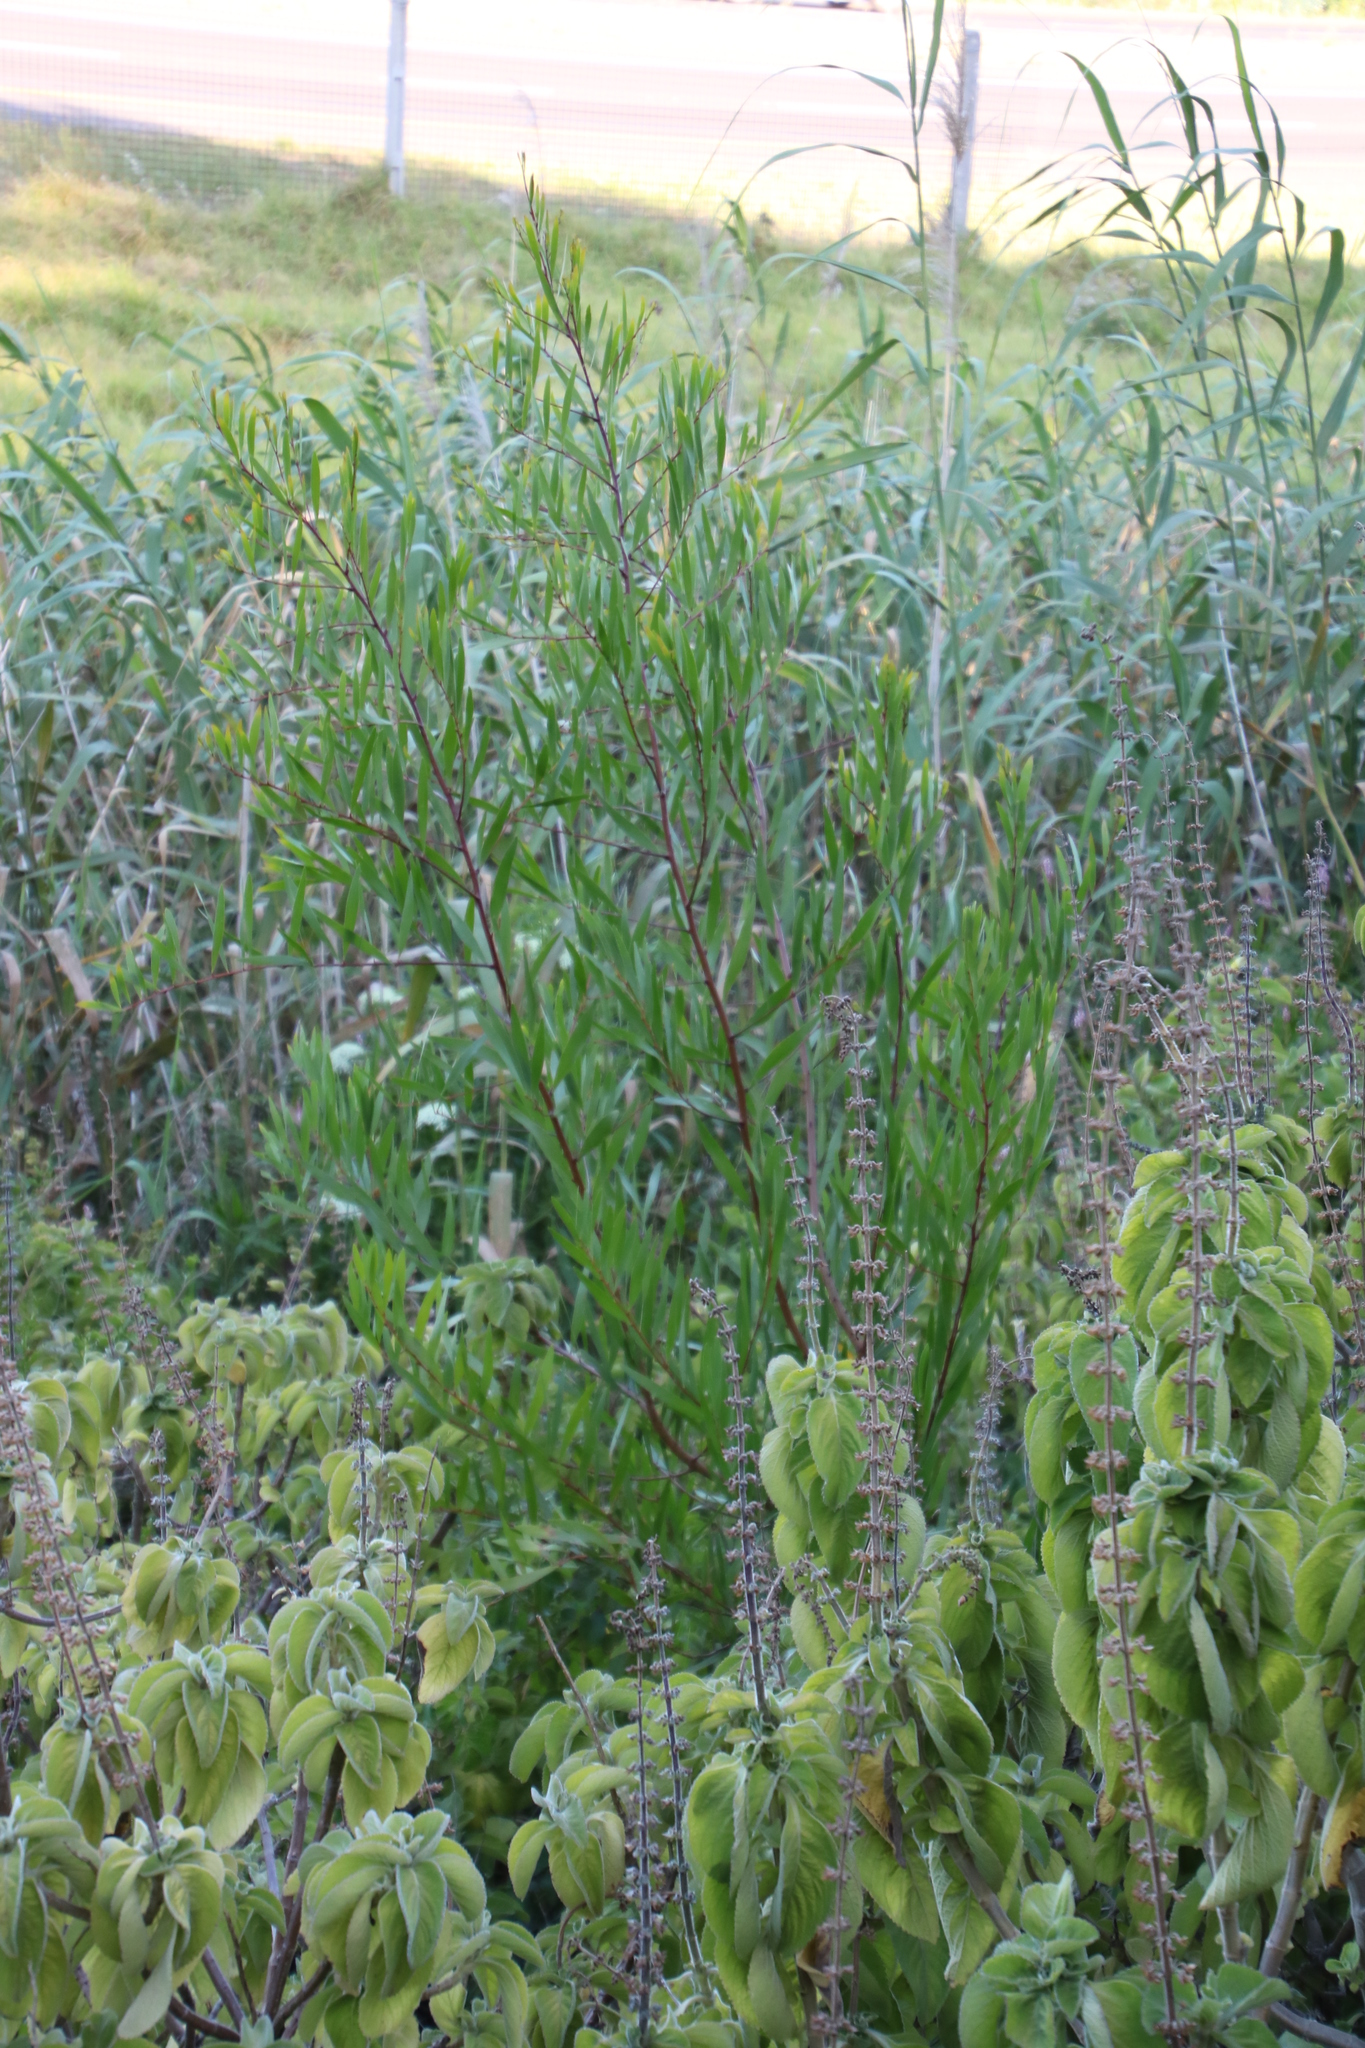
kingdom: Plantae
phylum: Tracheophyta
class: Magnoliopsida
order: Fabales
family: Fabaceae
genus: Acacia
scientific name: Acacia longifolia
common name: Sydney golden wattle
